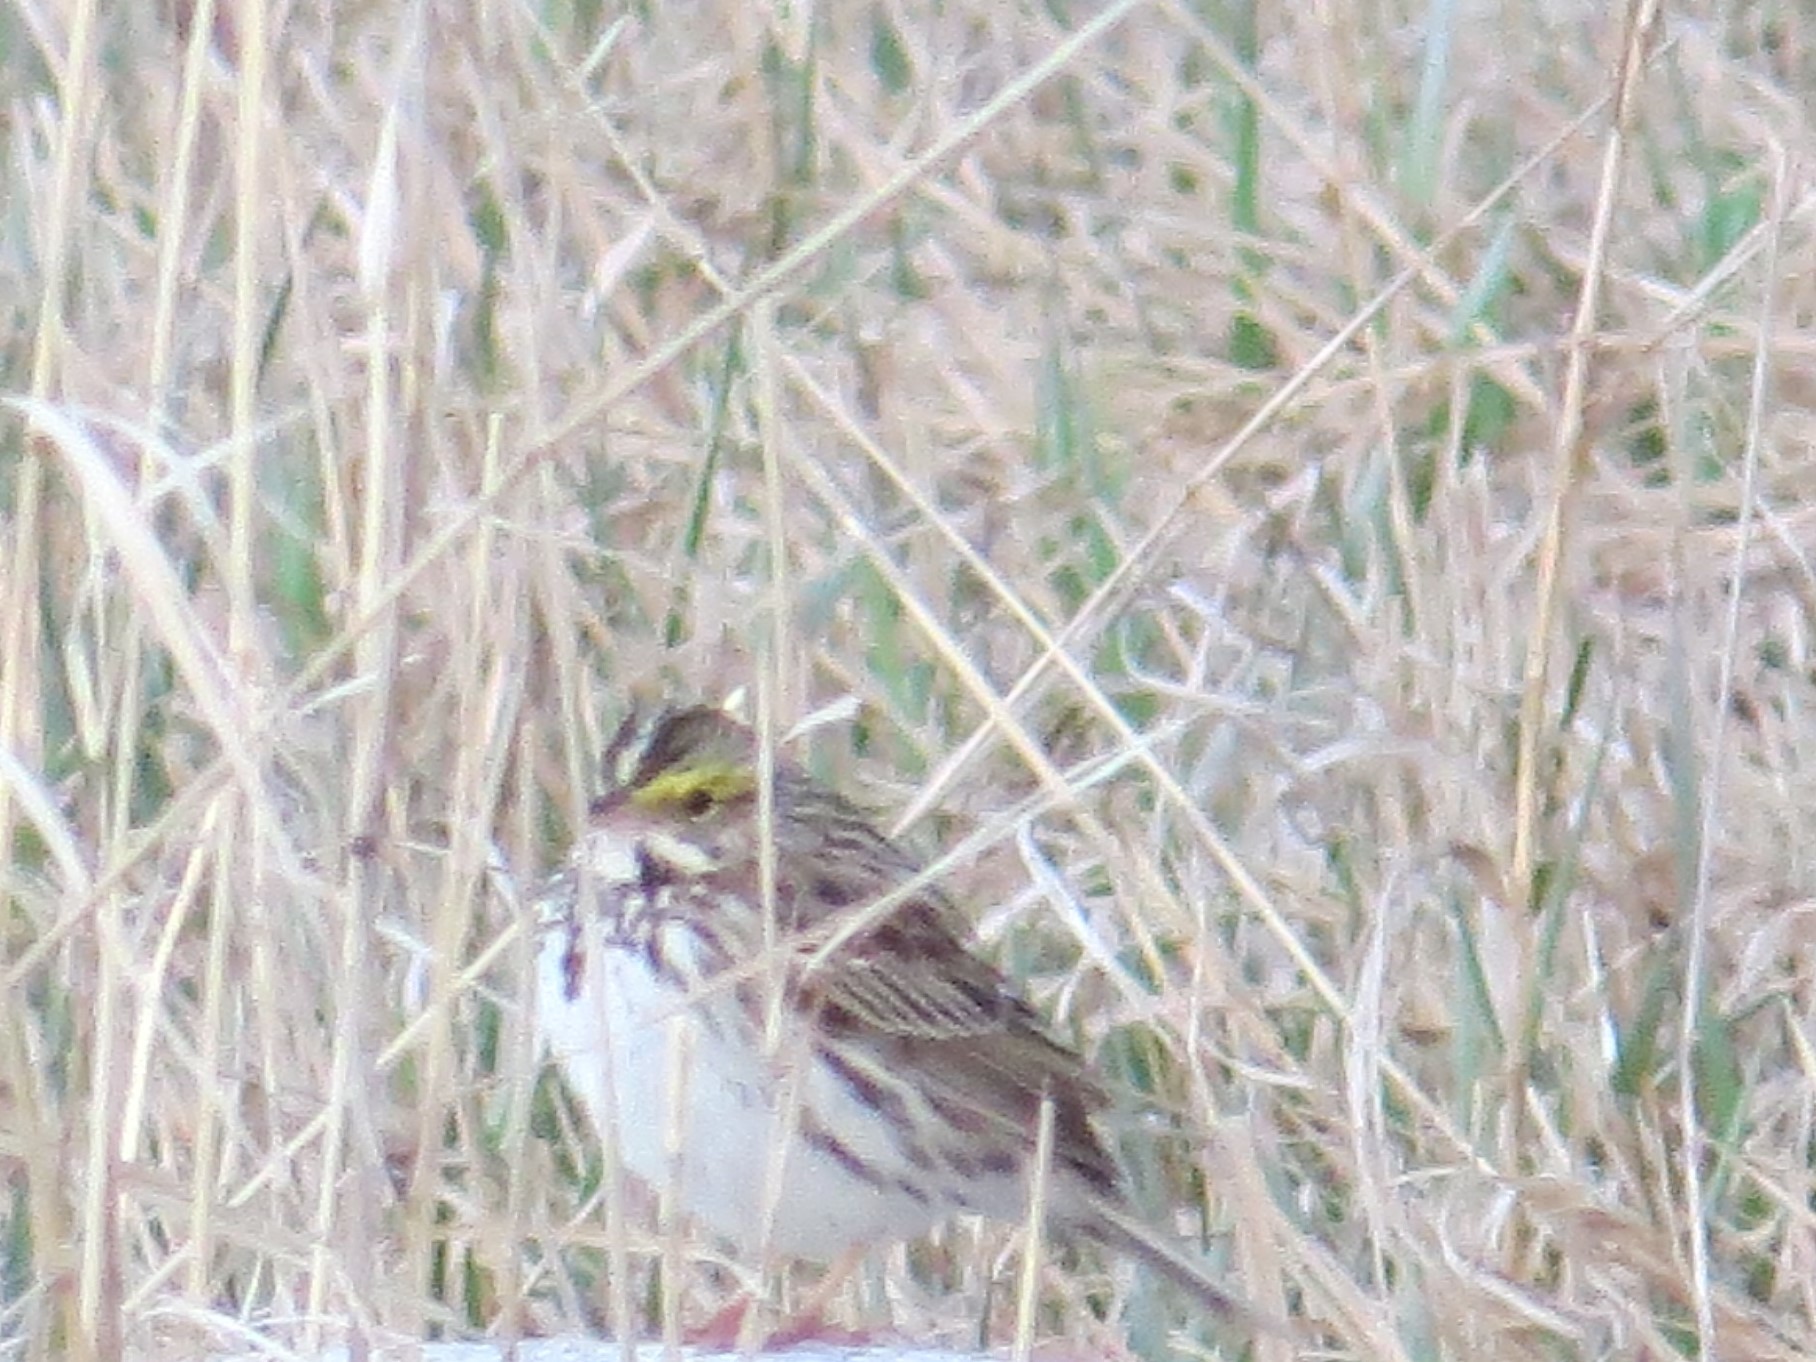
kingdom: Animalia
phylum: Chordata
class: Aves
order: Passeriformes
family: Passerellidae
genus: Passerculus
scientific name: Passerculus sandwichensis
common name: Savannah sparrow
